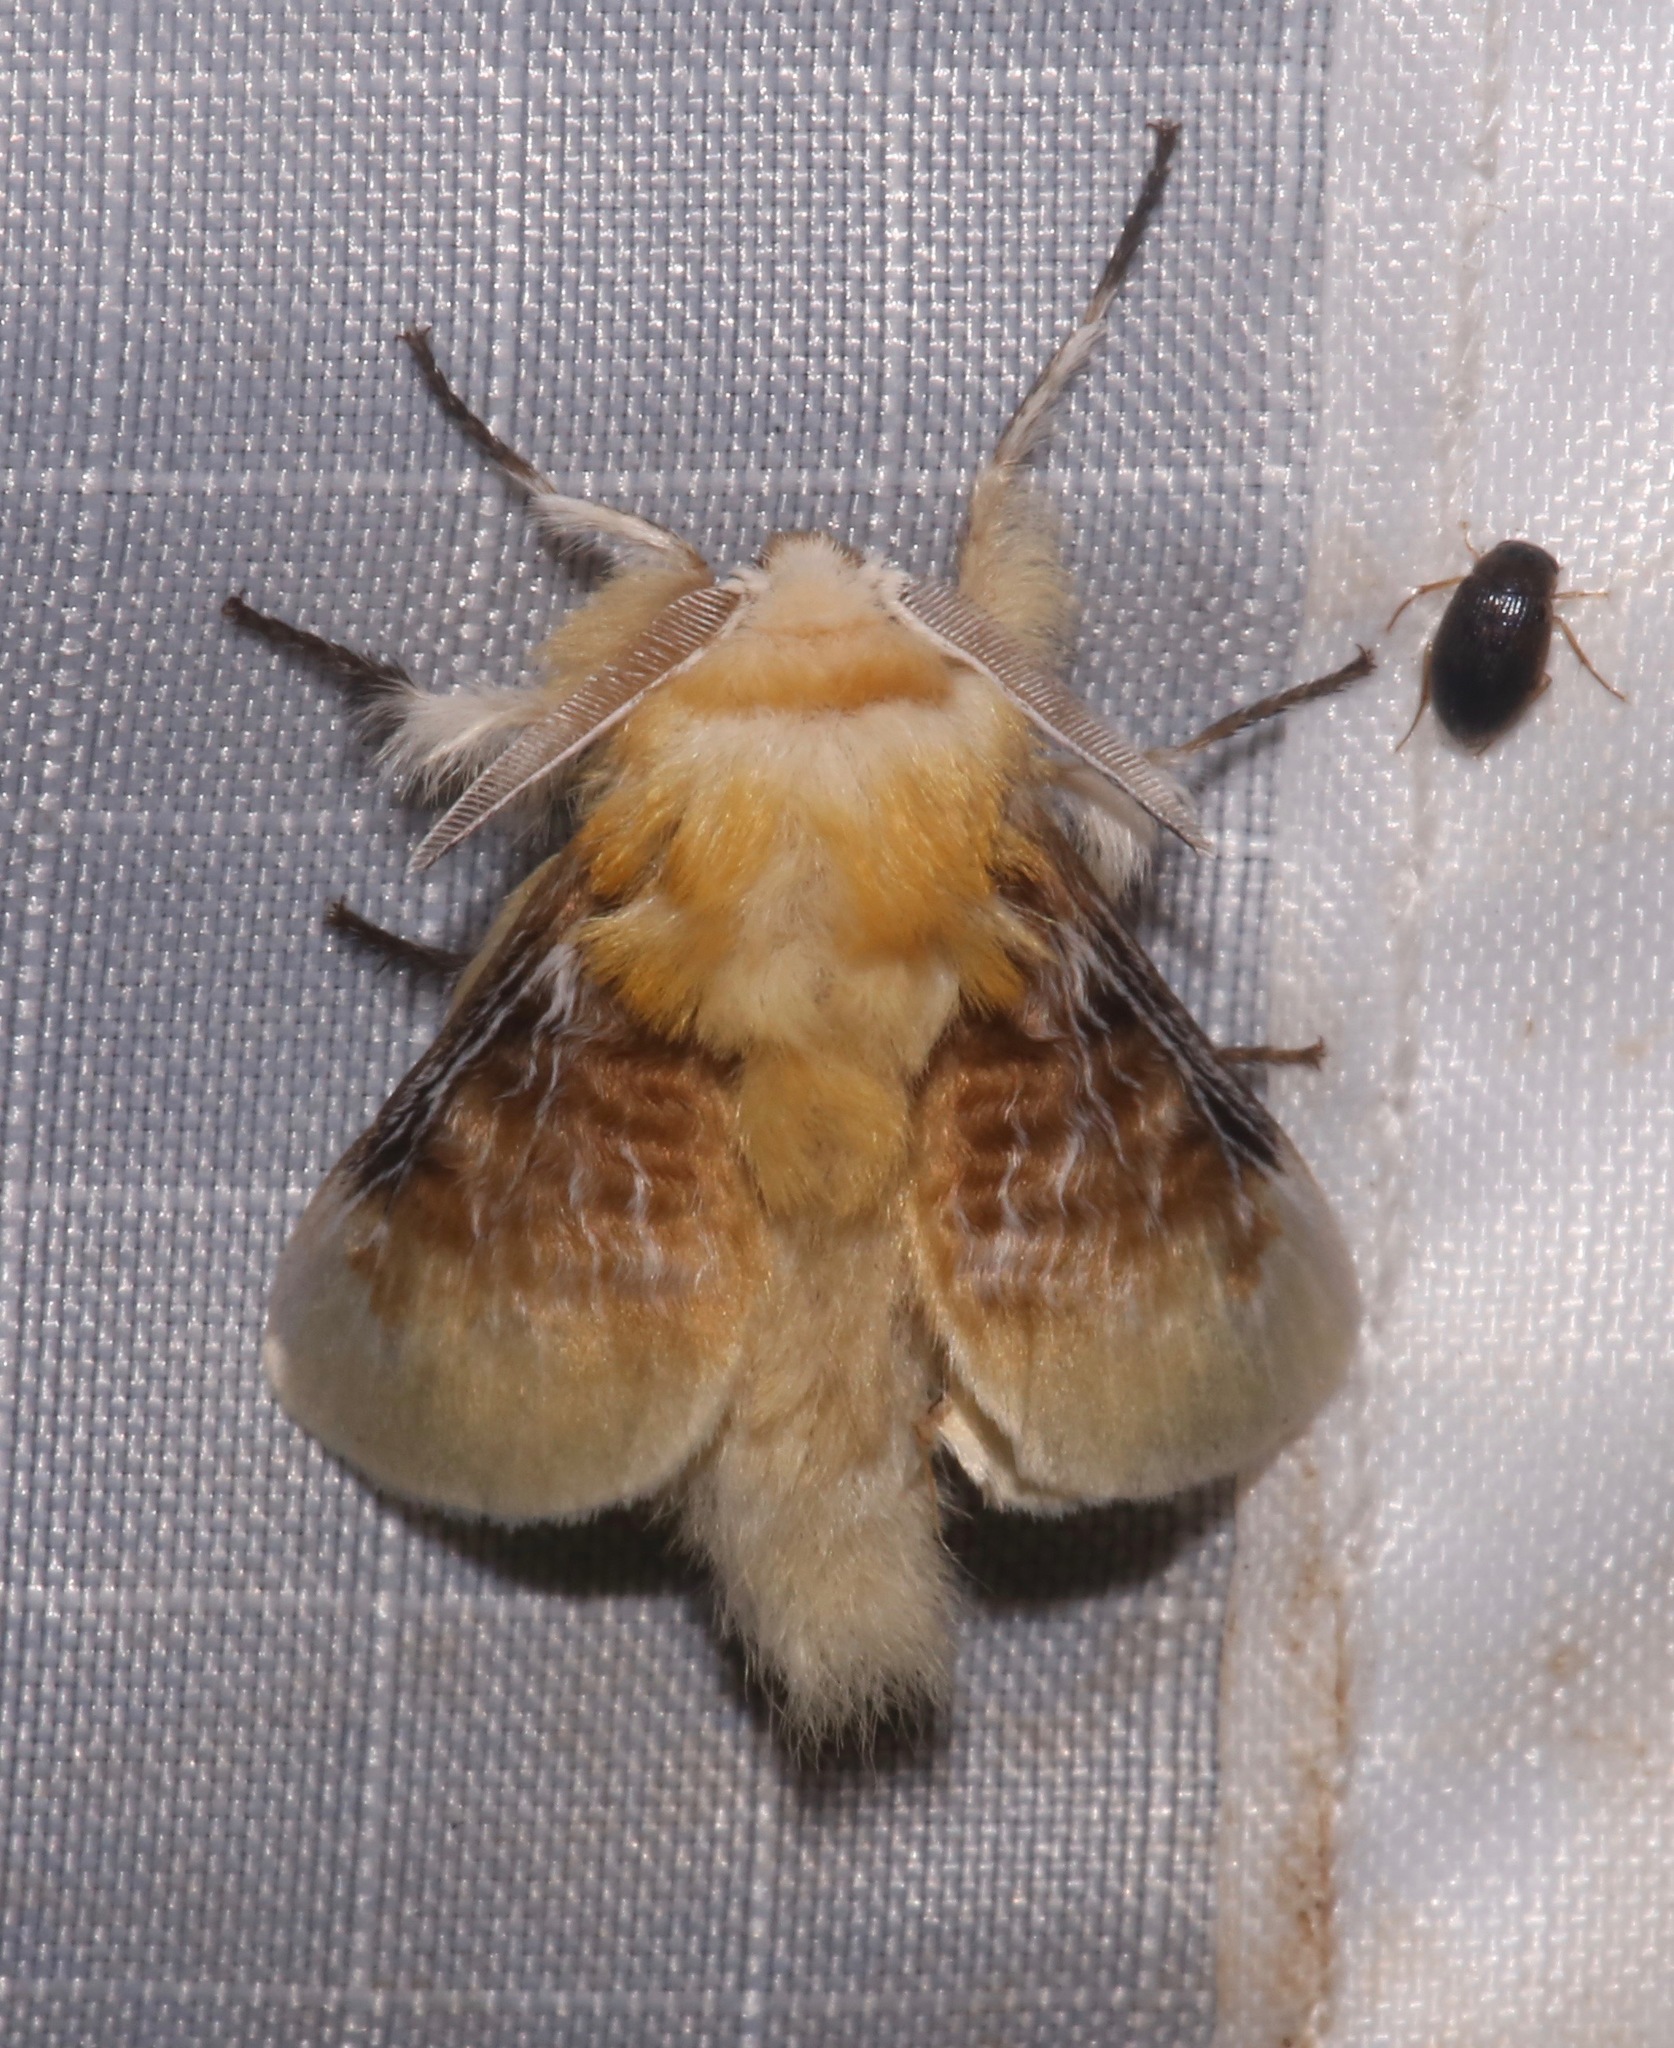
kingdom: Animalia
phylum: Arthropoda
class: Insecta
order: Lepidoptera
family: Megalopygidae
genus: Megalopyge
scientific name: Megalopyge opercularis
